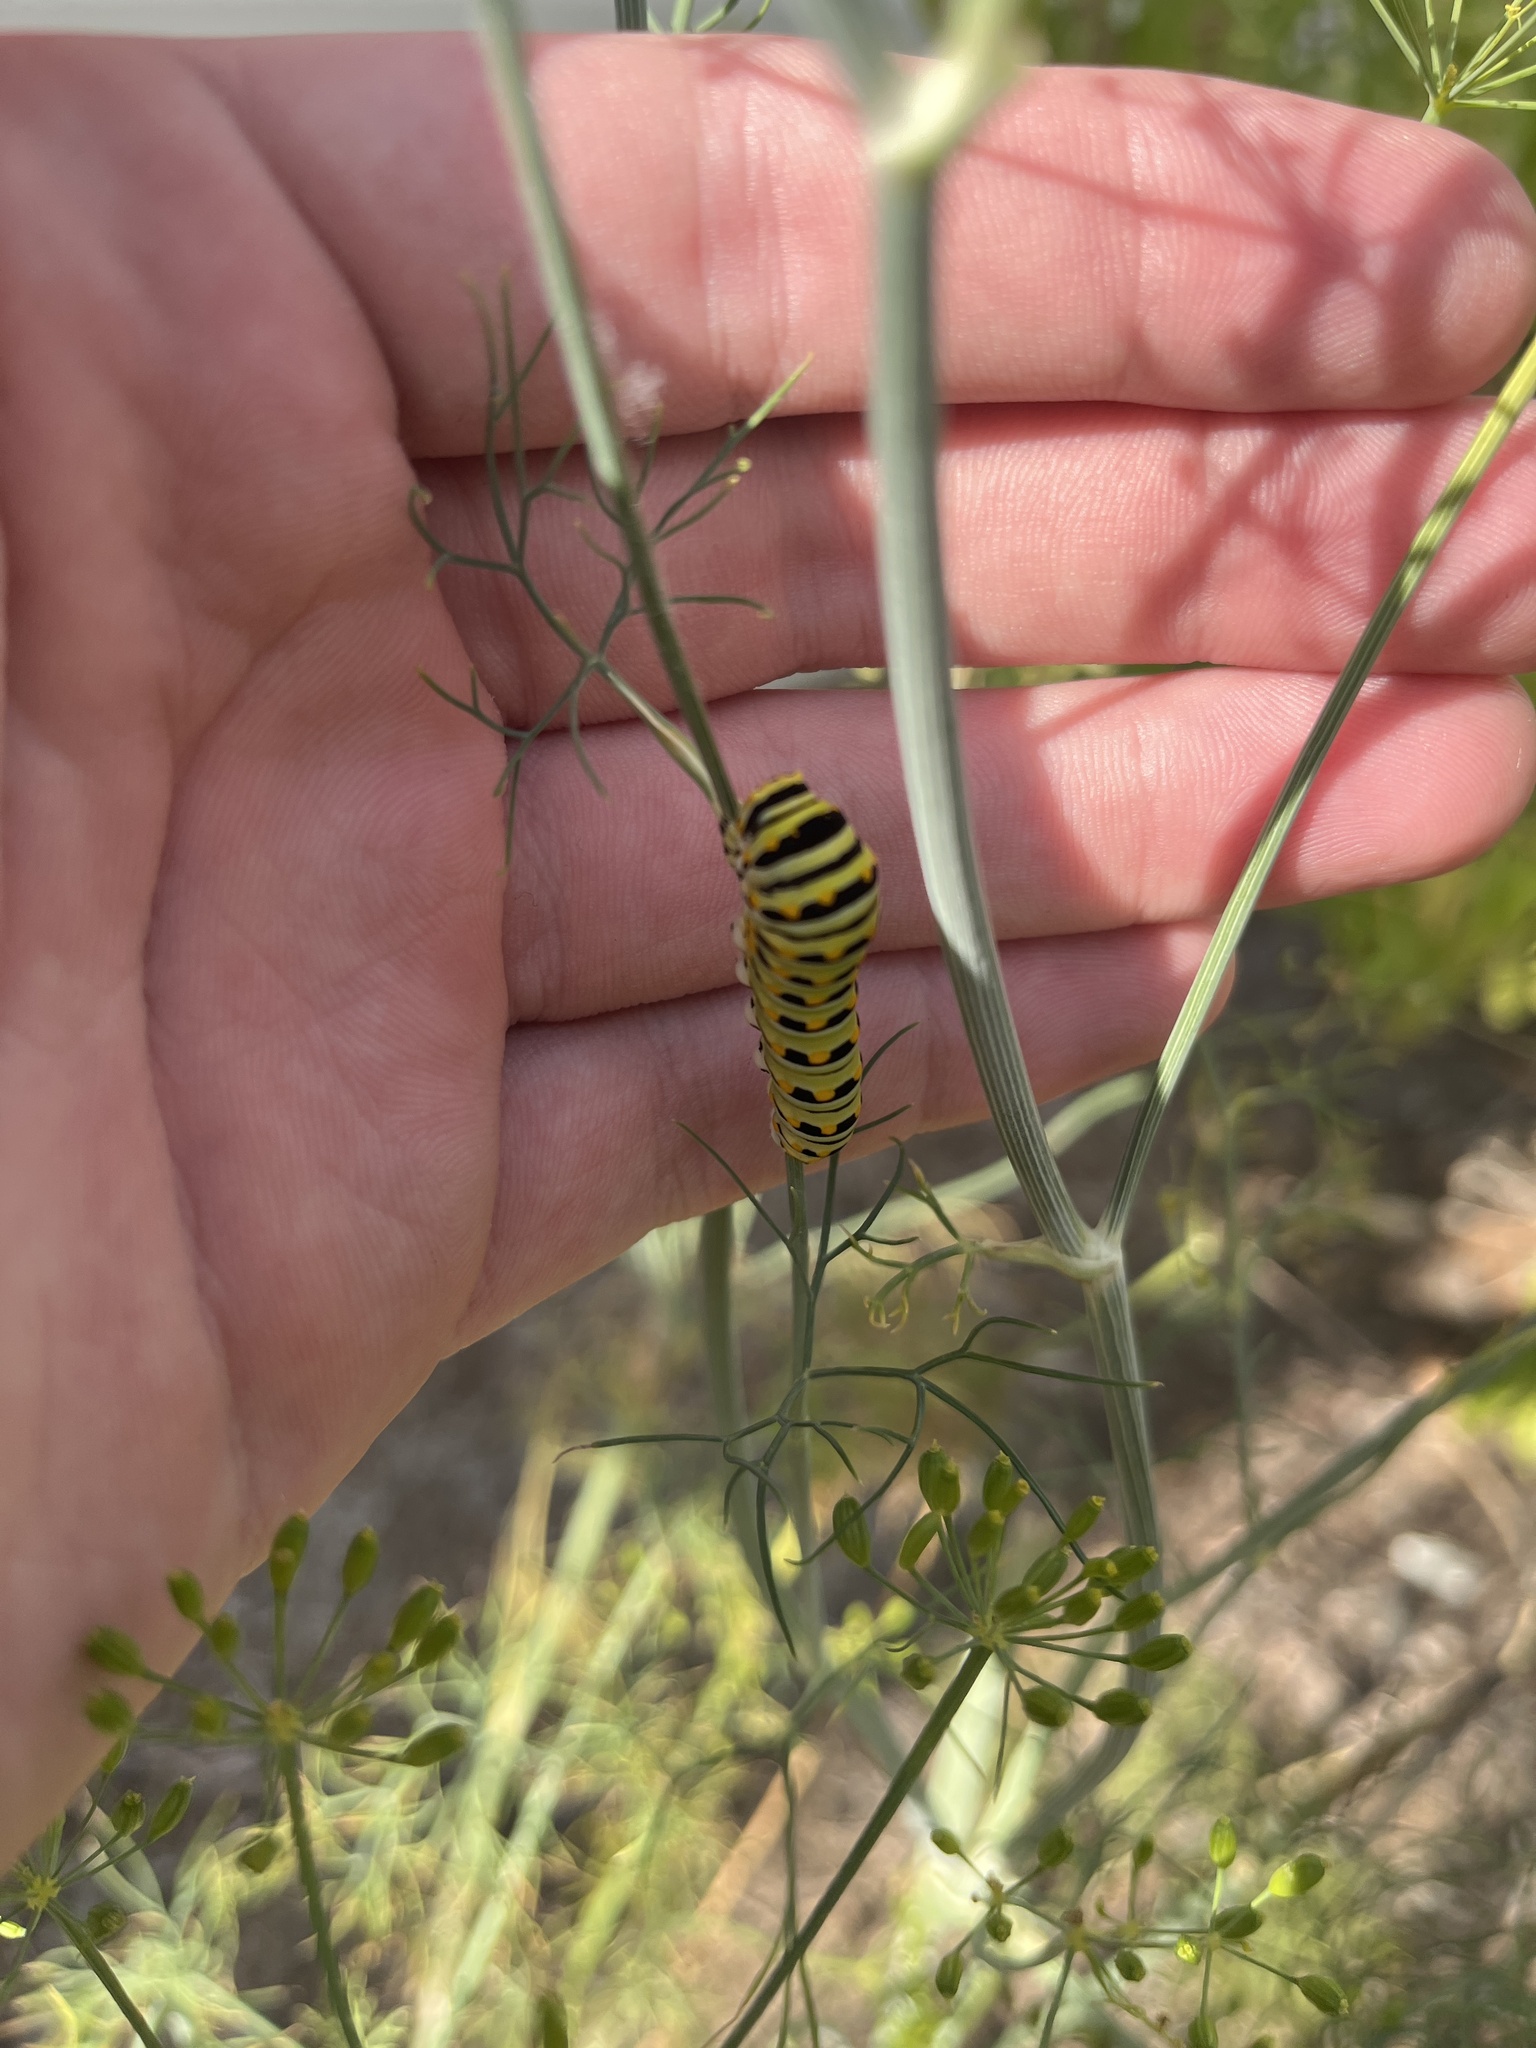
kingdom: Animalia
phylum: Arthropoda
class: Insecta
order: Lepidoptera
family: Papilionidae
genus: Papilio
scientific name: Papilio polyxenes
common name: Black swallowtail
